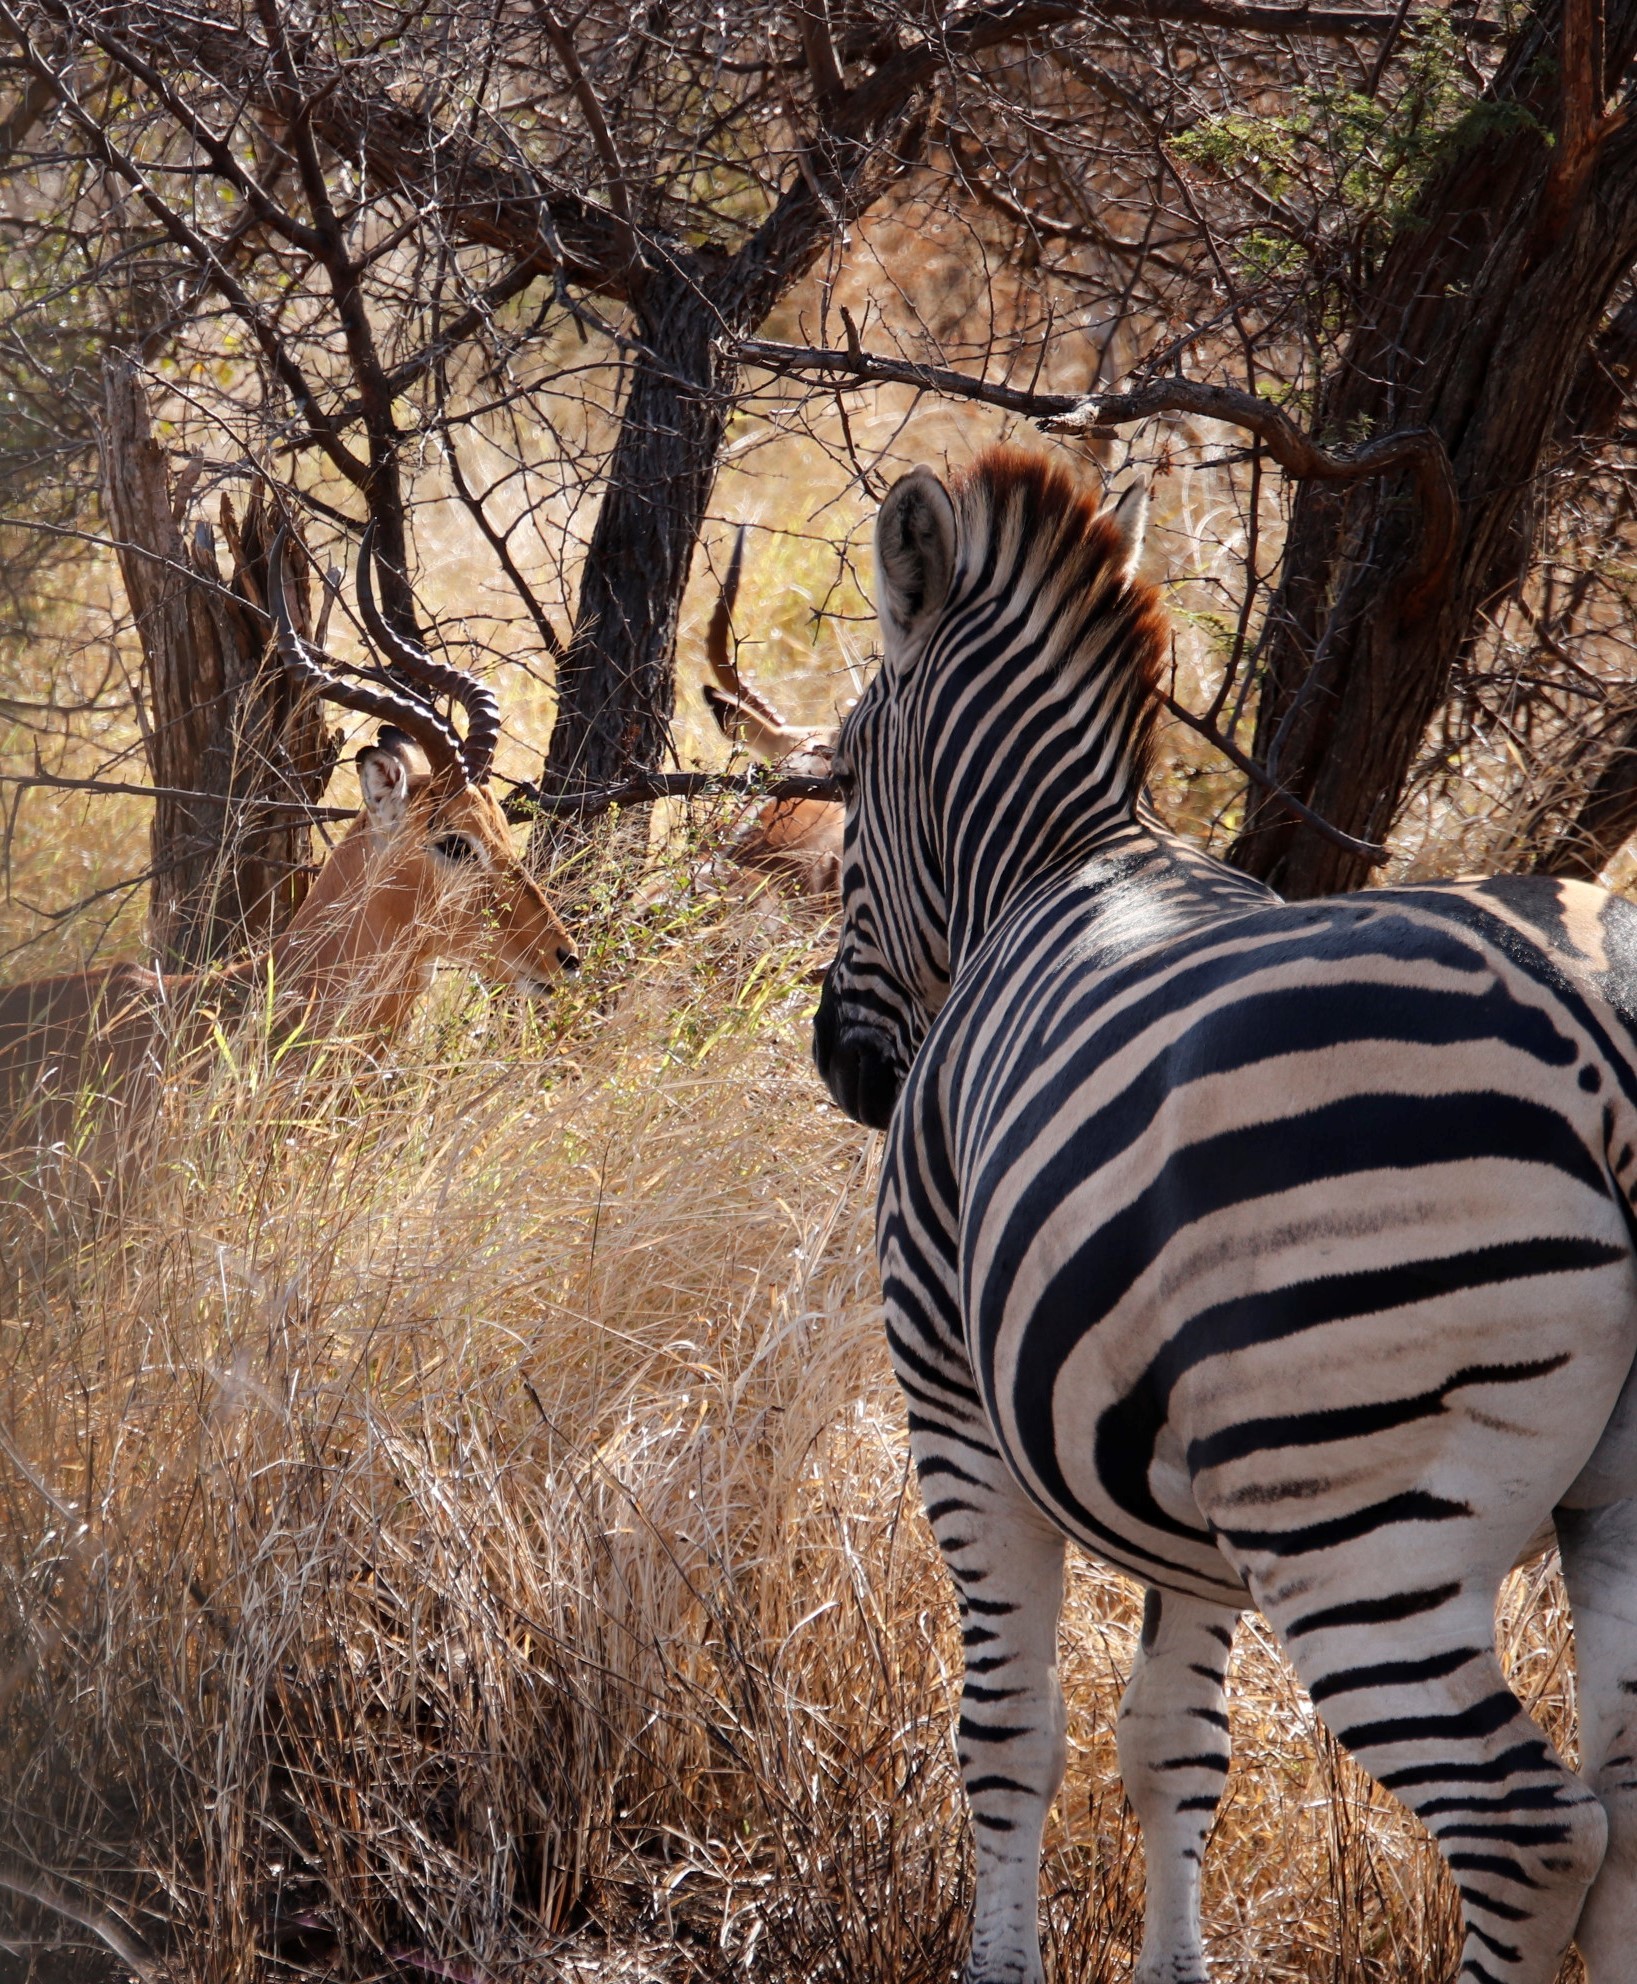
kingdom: Animalia
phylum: Chordata
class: Mammalia
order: Artiodactyla
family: Bovidae
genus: Aepyceros
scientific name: Aepyceros melampus
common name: Impala
